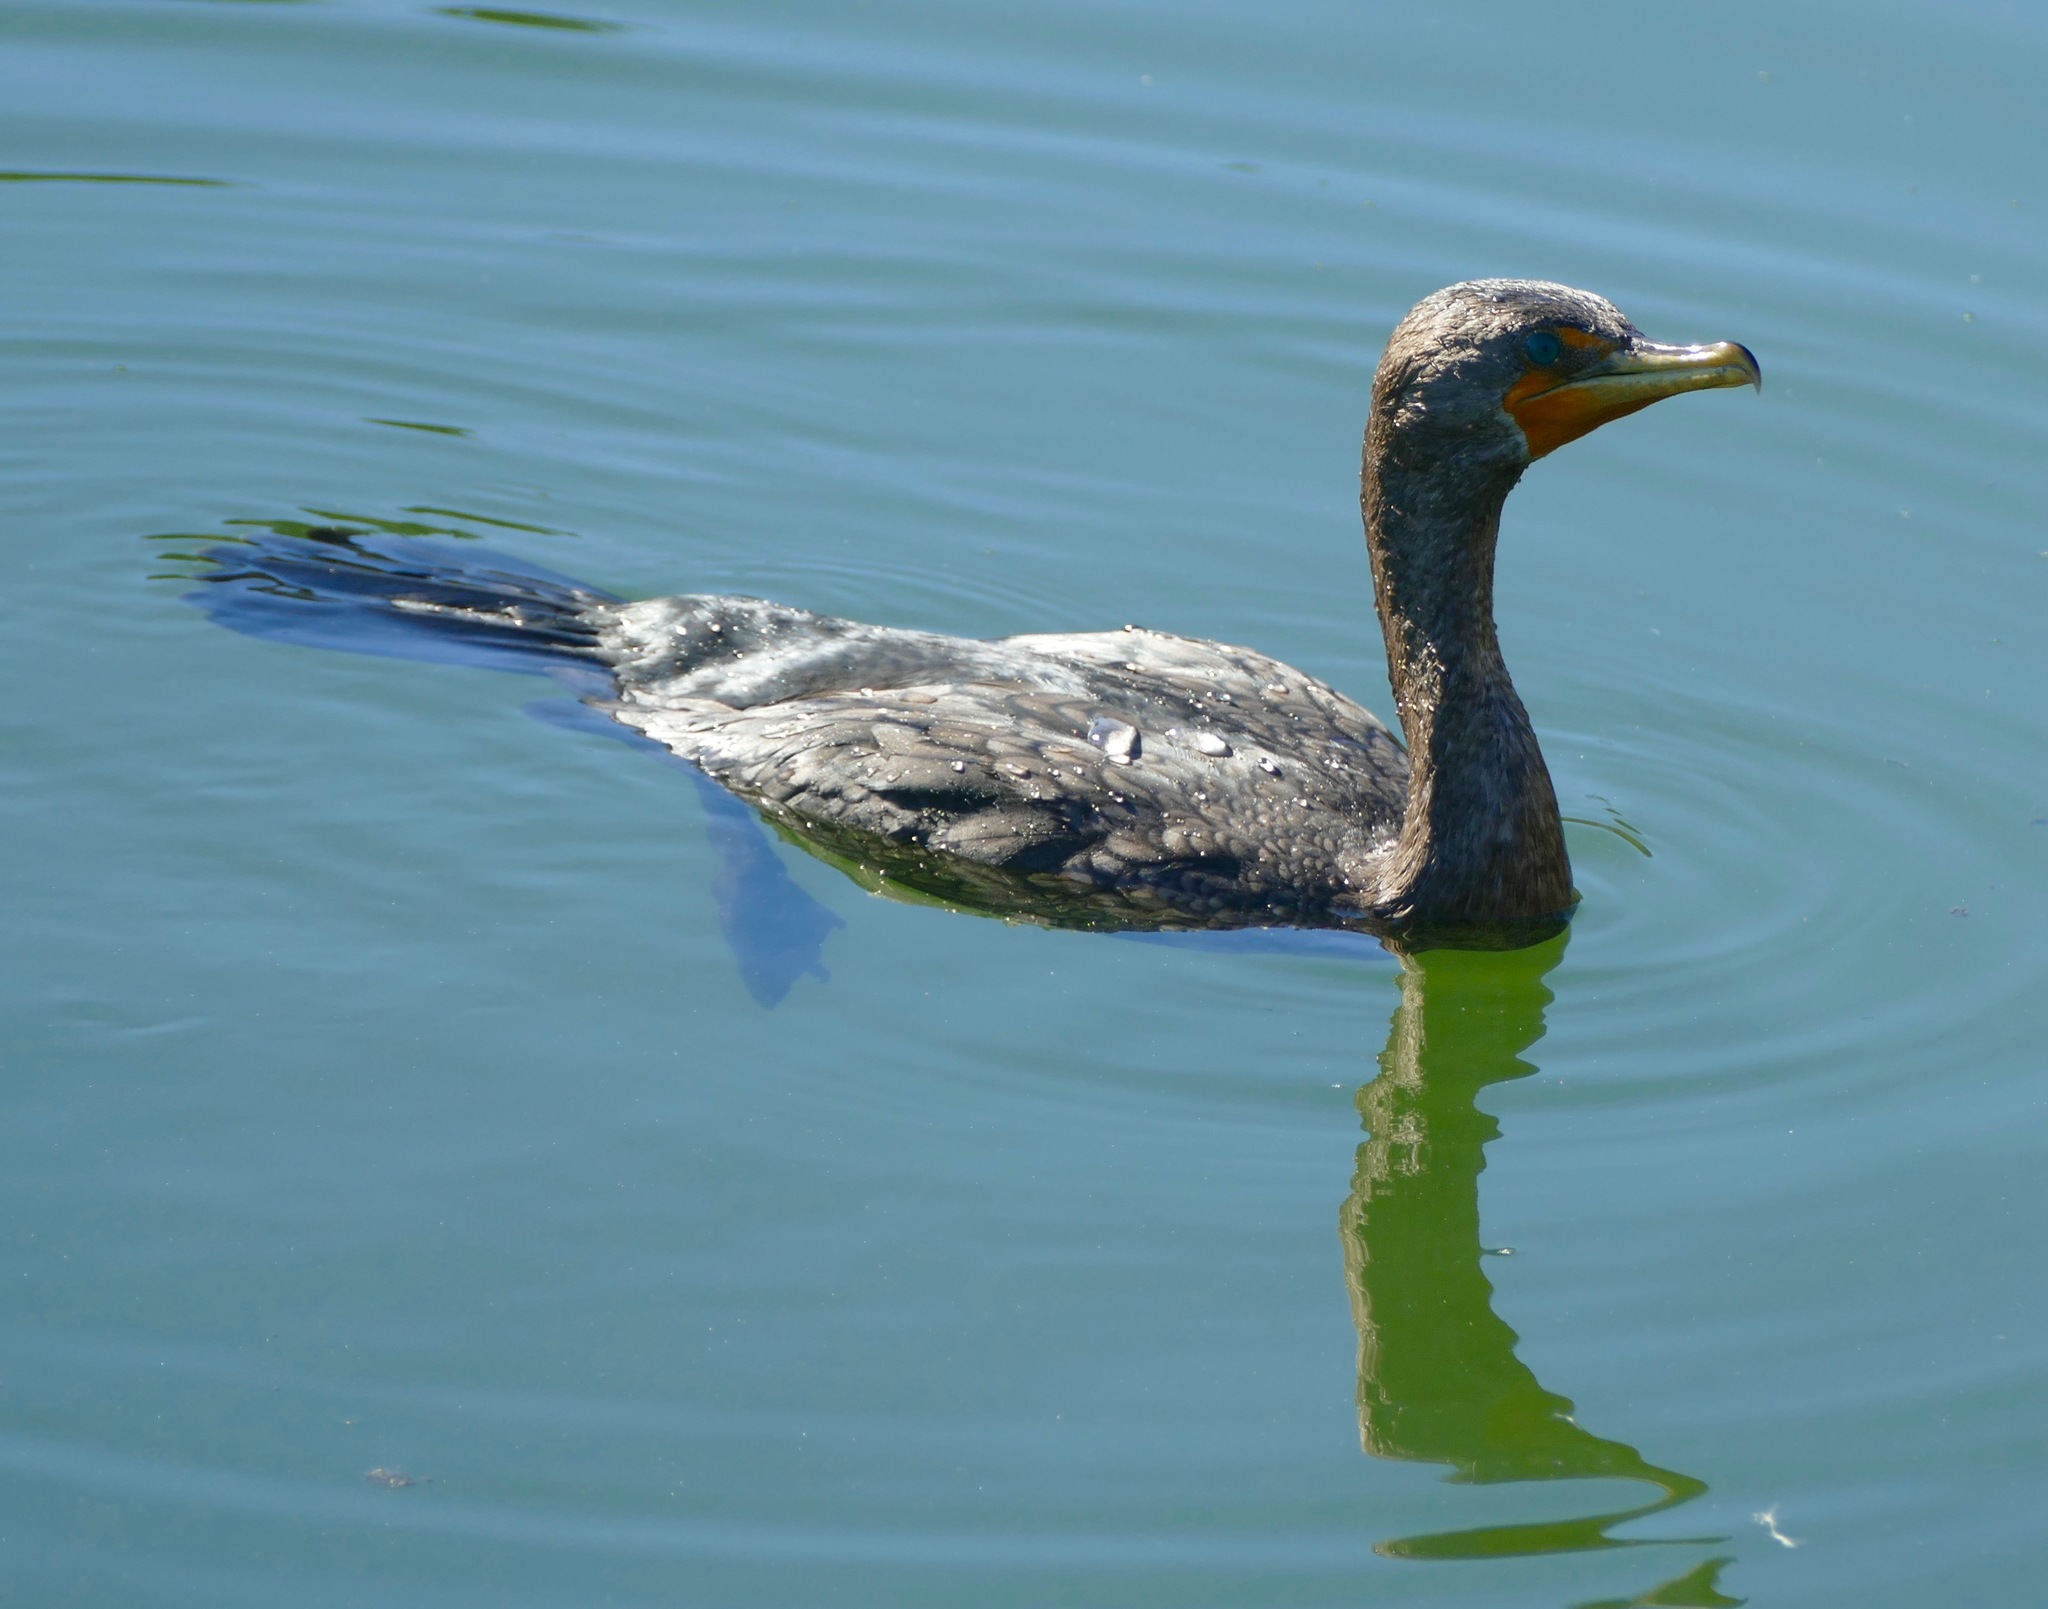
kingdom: Animalia
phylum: Chordata
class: Aves
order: Suliformes
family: Phalacrocoracidae
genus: Phalacrocorax
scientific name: Phalacrocorax auritus
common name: Double-crested cormorant
